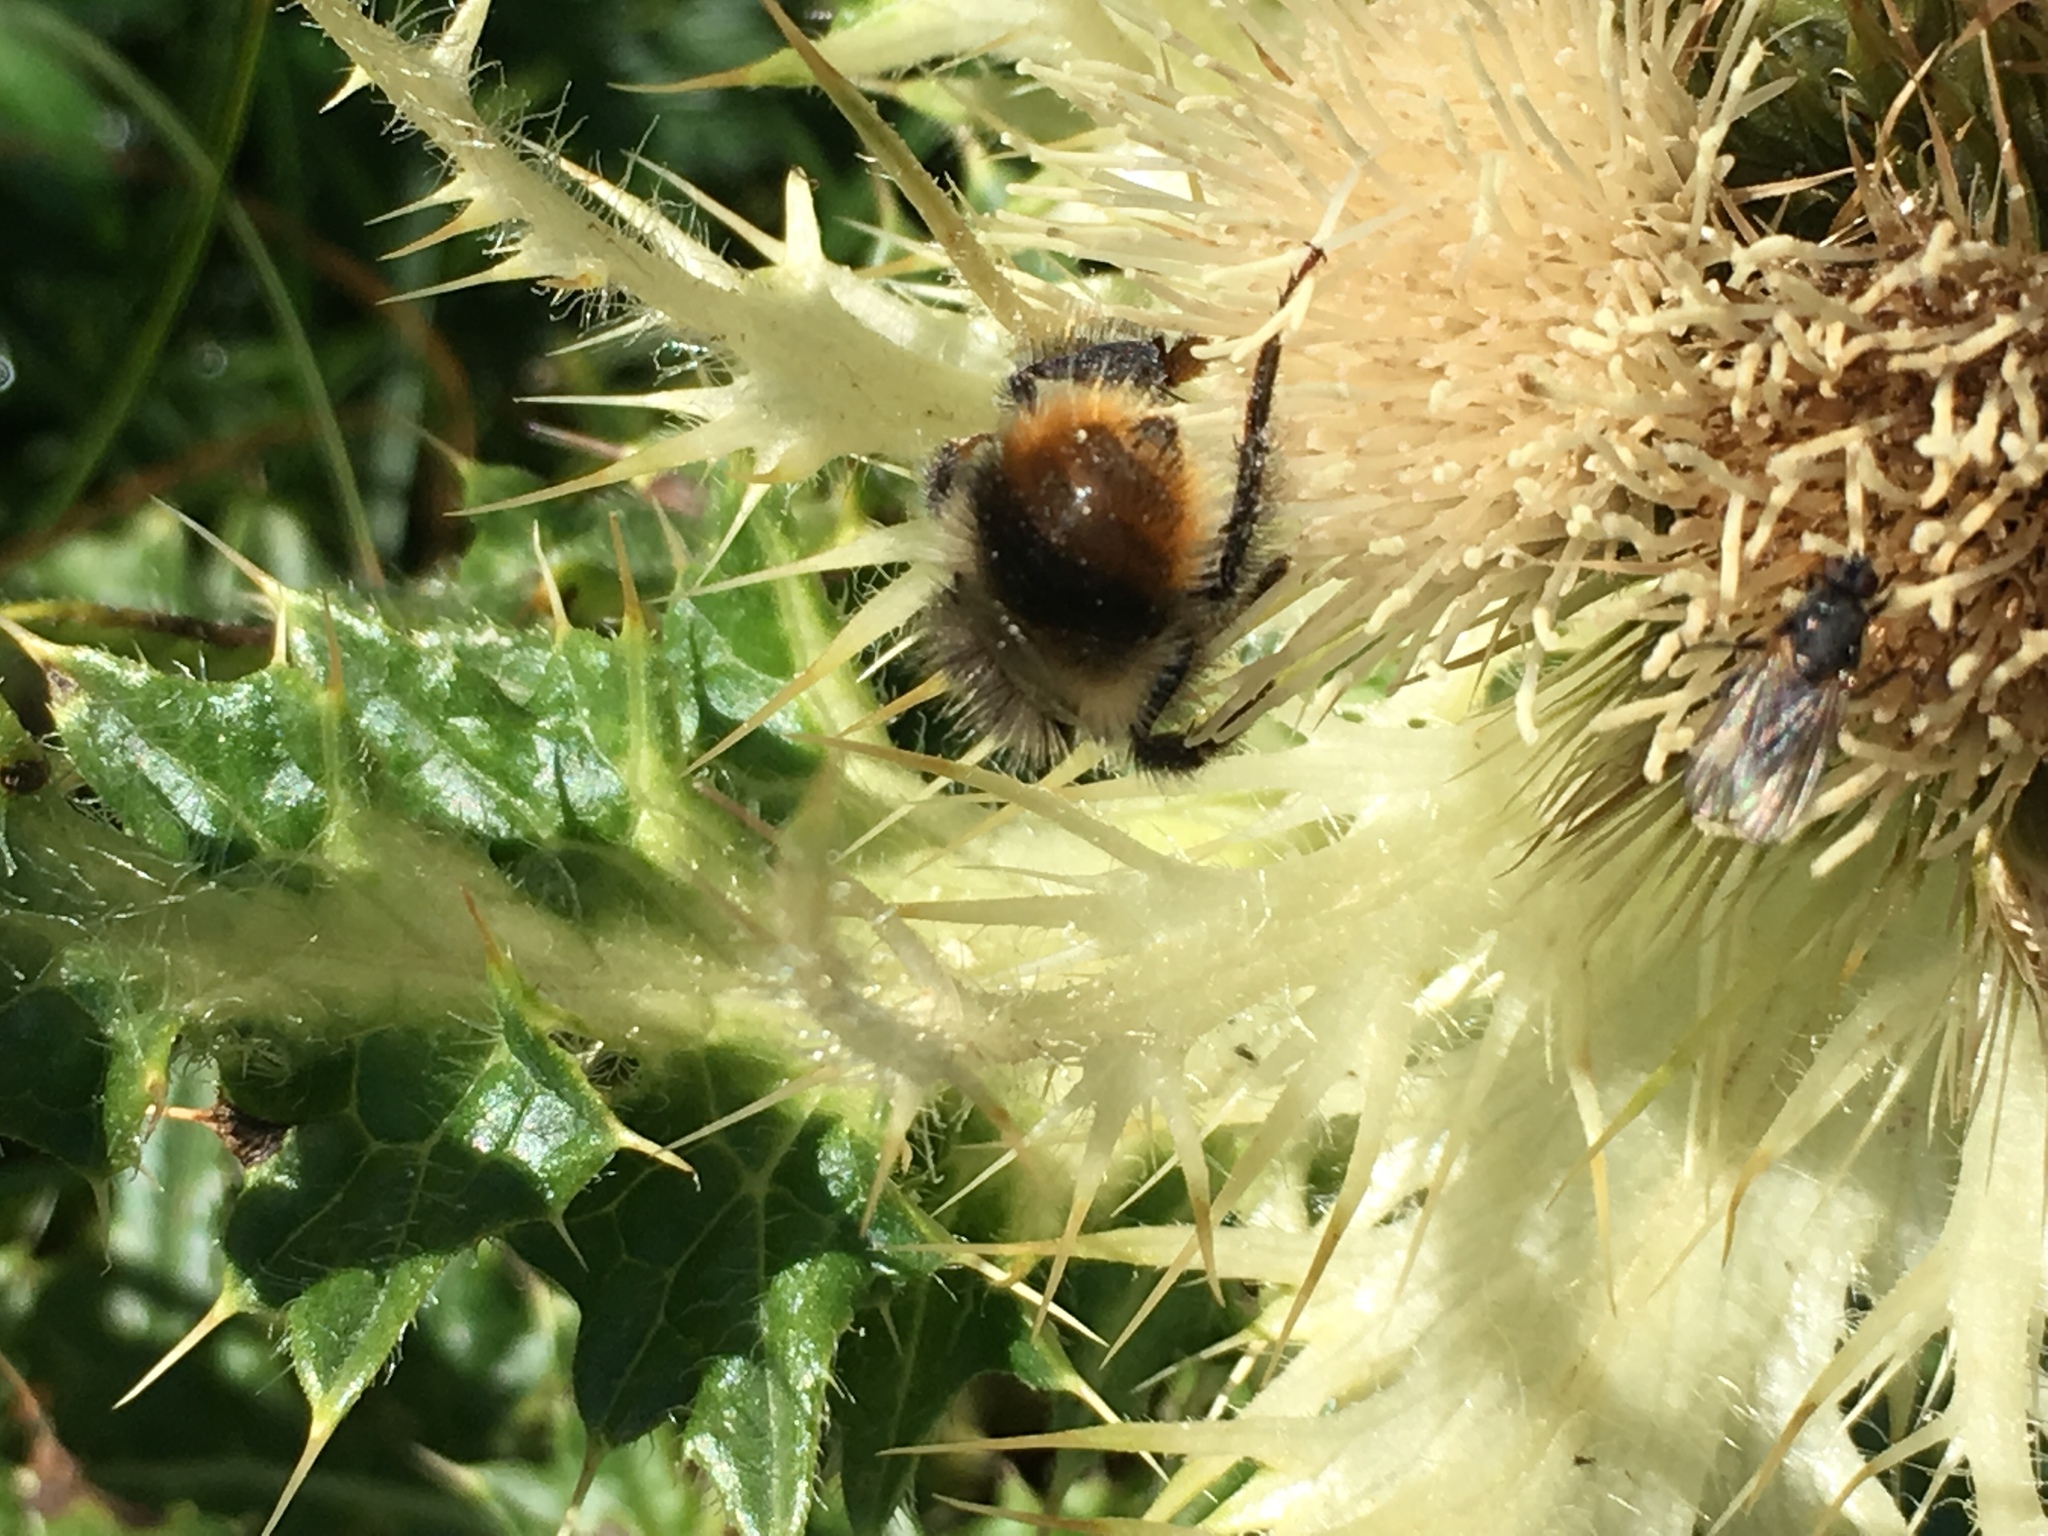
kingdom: Animalia
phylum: Arthropoda
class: Insecta
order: Hymenoptera
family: Apidae
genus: Bombus
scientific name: Bombus sichelii
